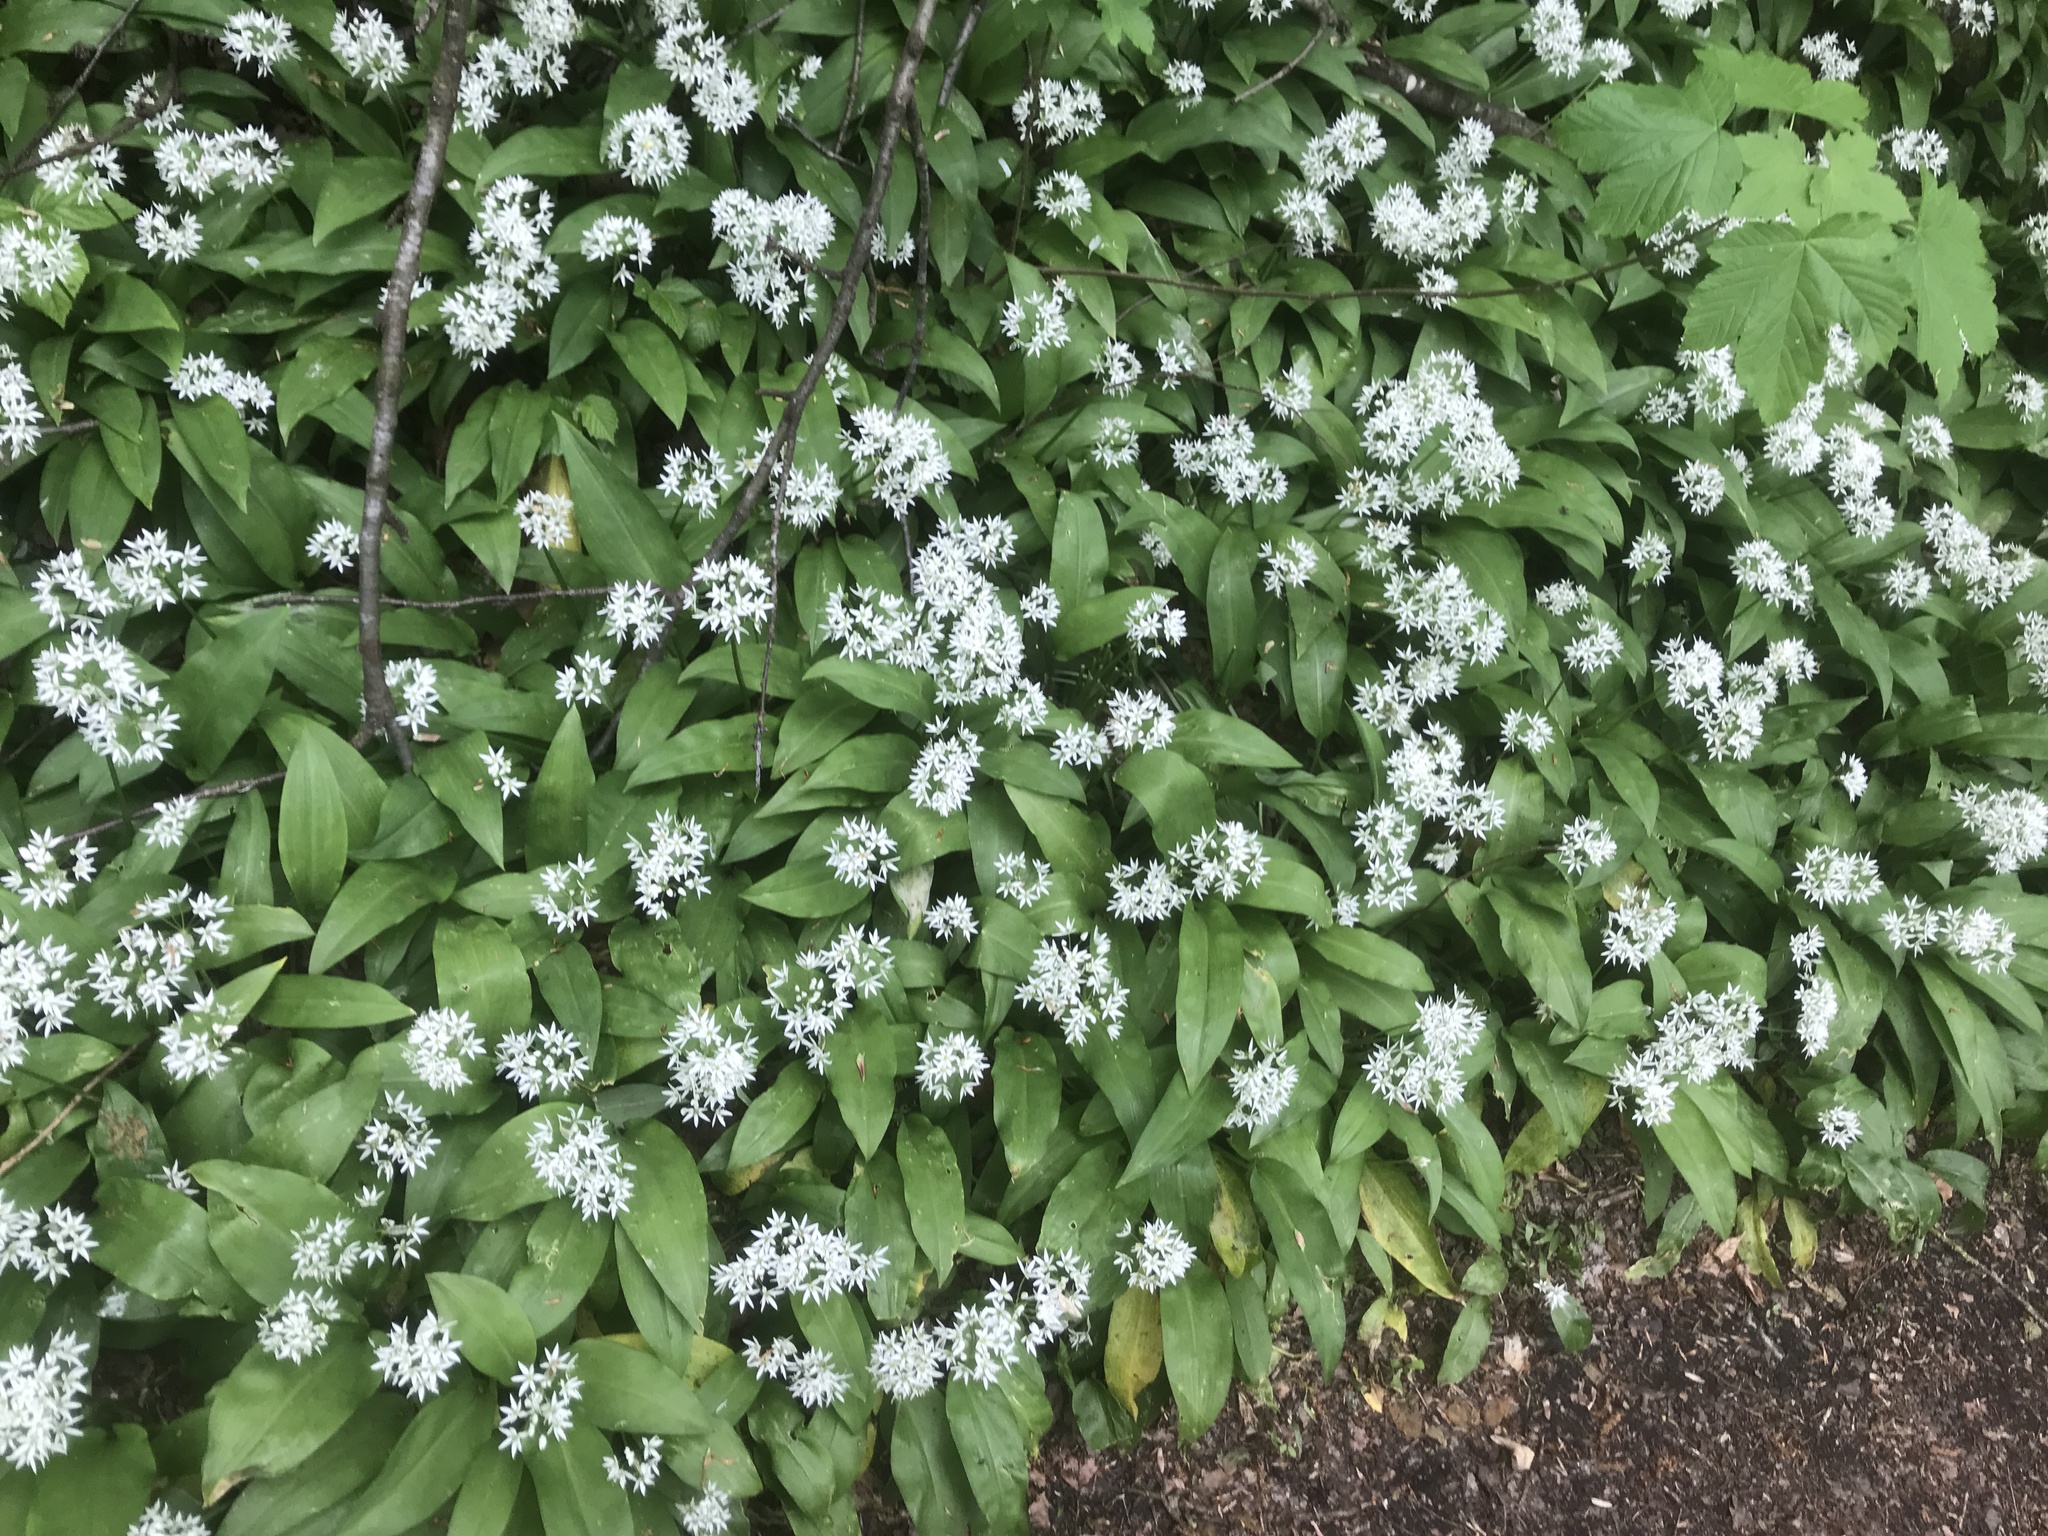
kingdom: Plantae
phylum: Tracheophyta
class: Liliopsida
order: Asparagales
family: Amaryllidaceae
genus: Allium
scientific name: Allium ursinum
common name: Ramsons
